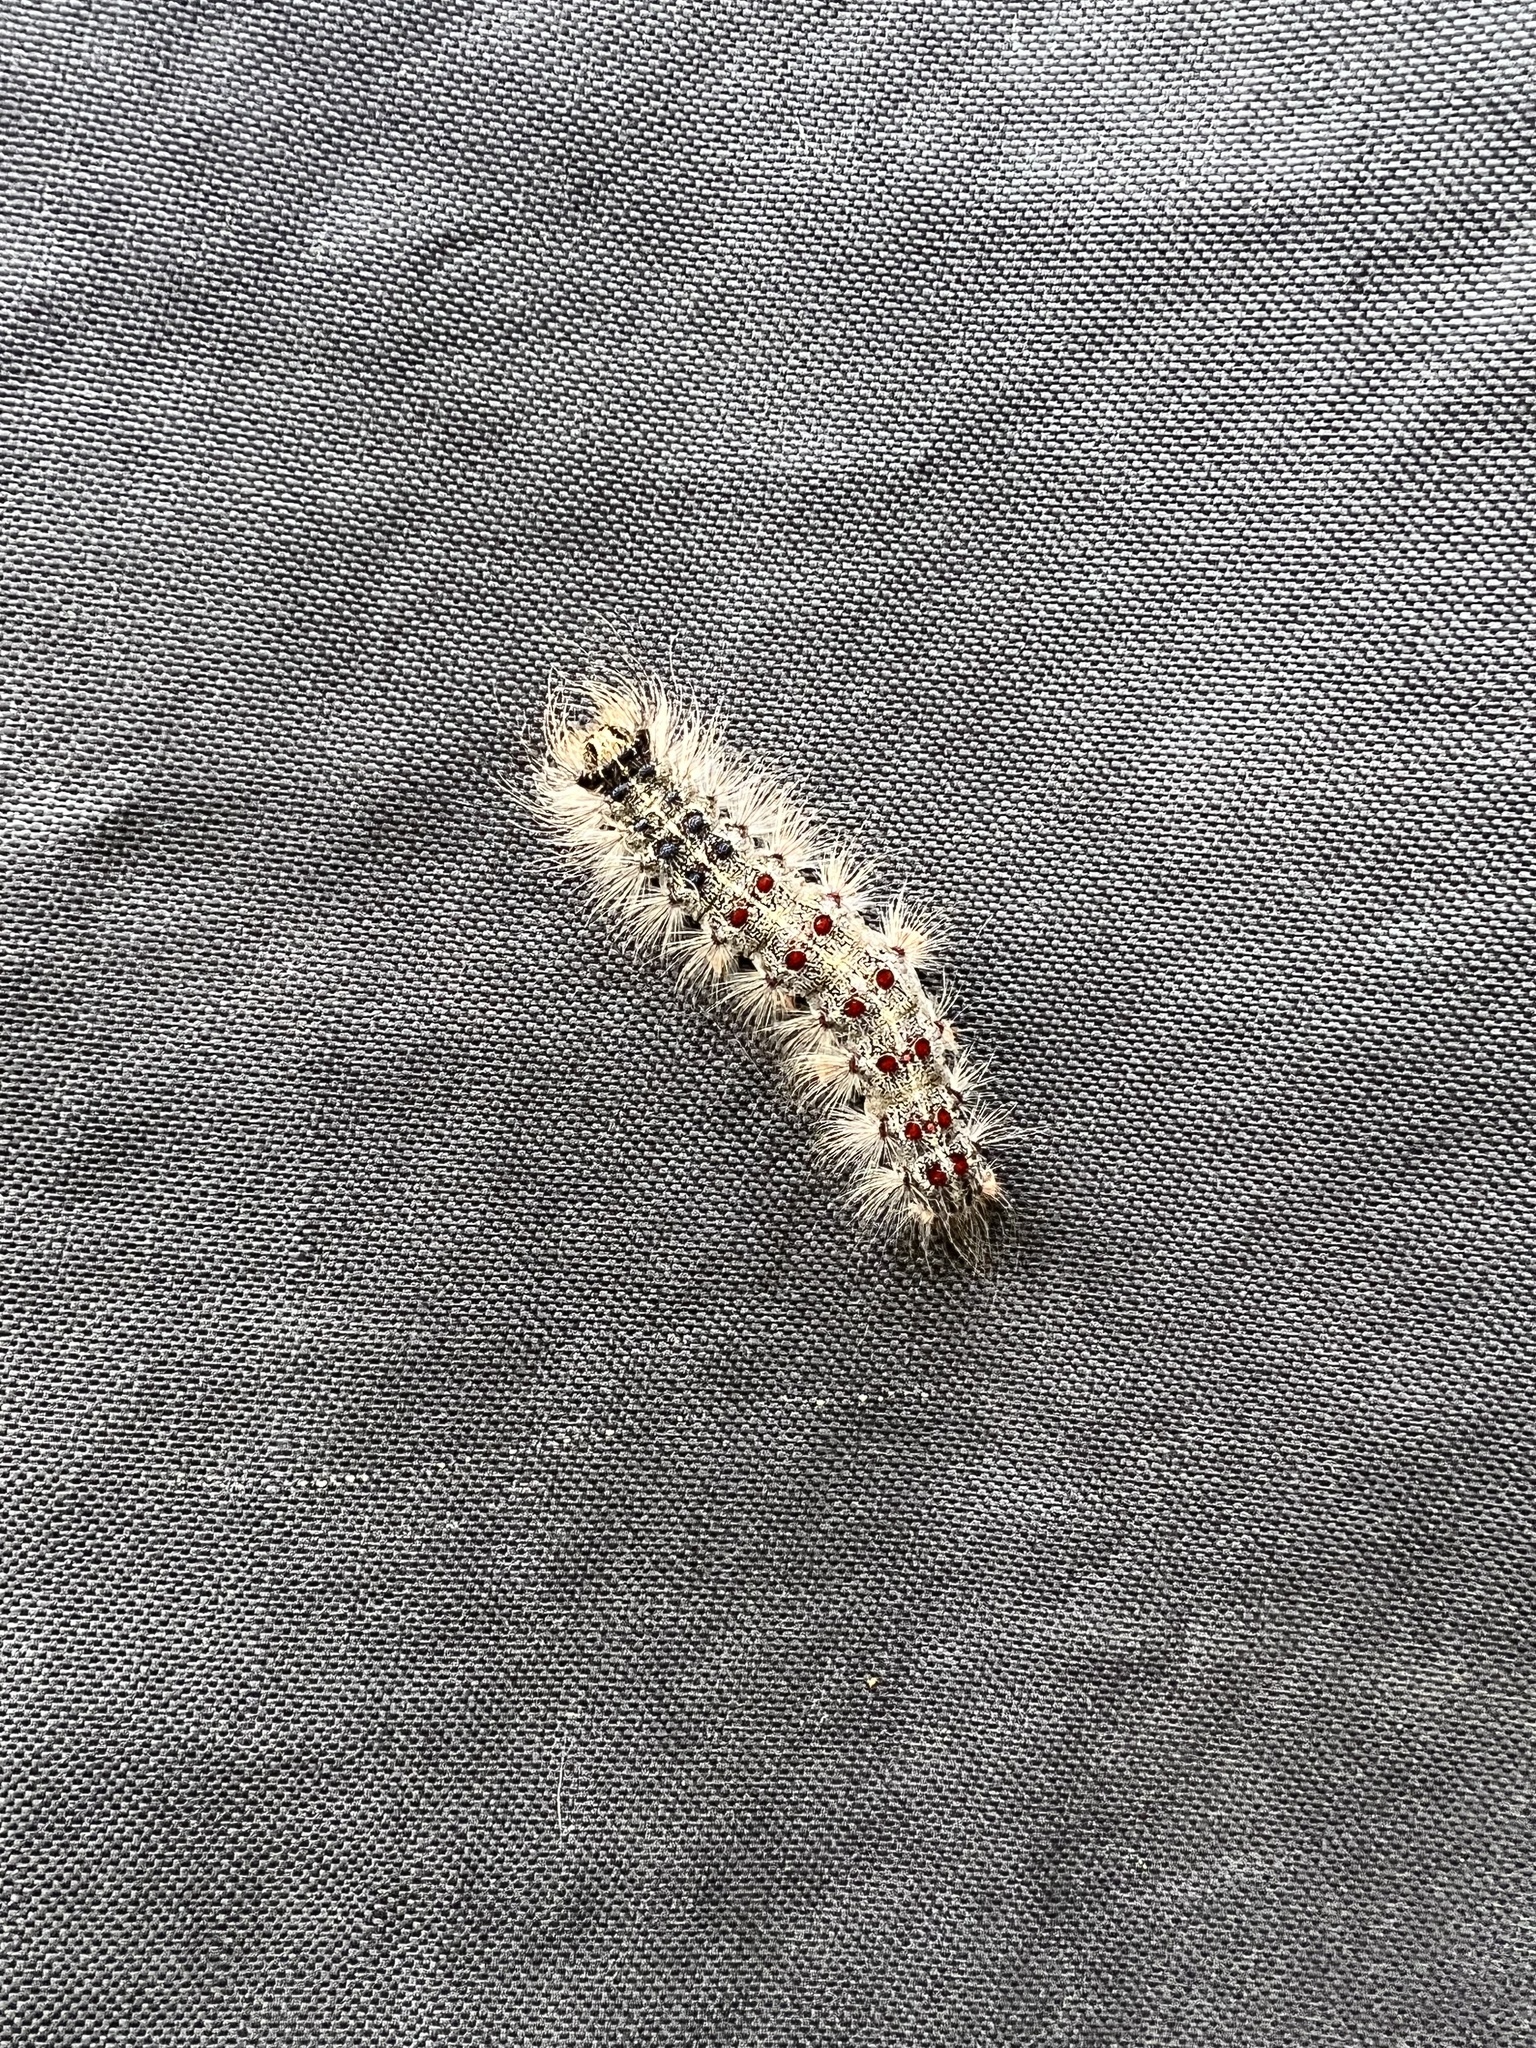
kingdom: Animalia
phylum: Arthropoda
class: Insecta
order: Lepidoptera
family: Erebidae
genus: Lymantria
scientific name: Lymantria dispar
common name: Gypsy moth
